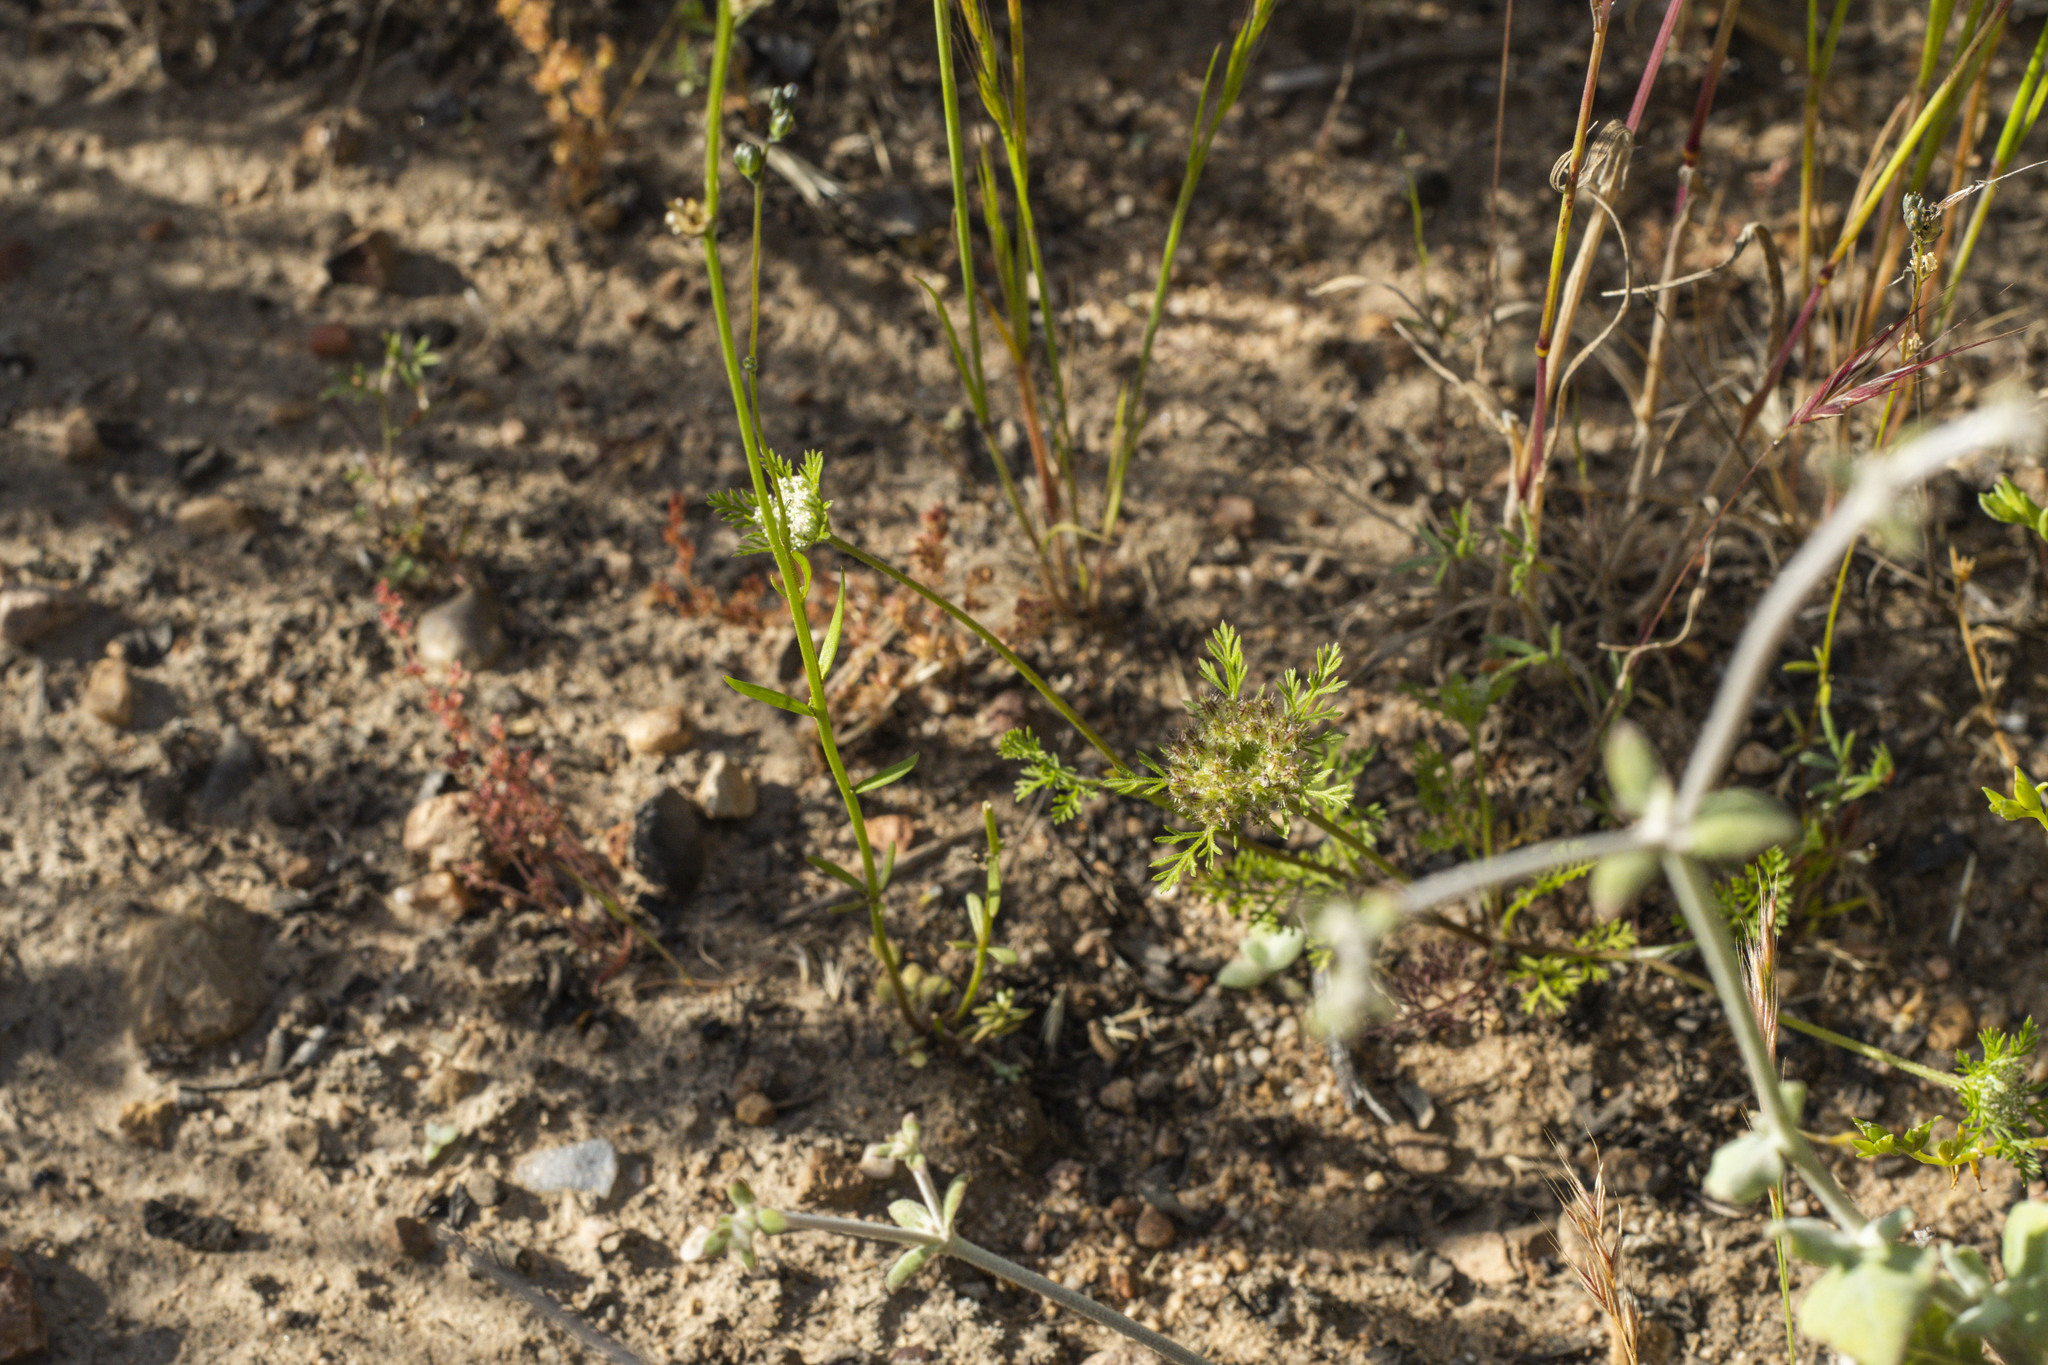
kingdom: Plantae
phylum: Tracheophyta
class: Magnoliopsida
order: Apiales
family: Apiaceae
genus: Daucus
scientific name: Daucus pusillus
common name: Southwest wild carrot
